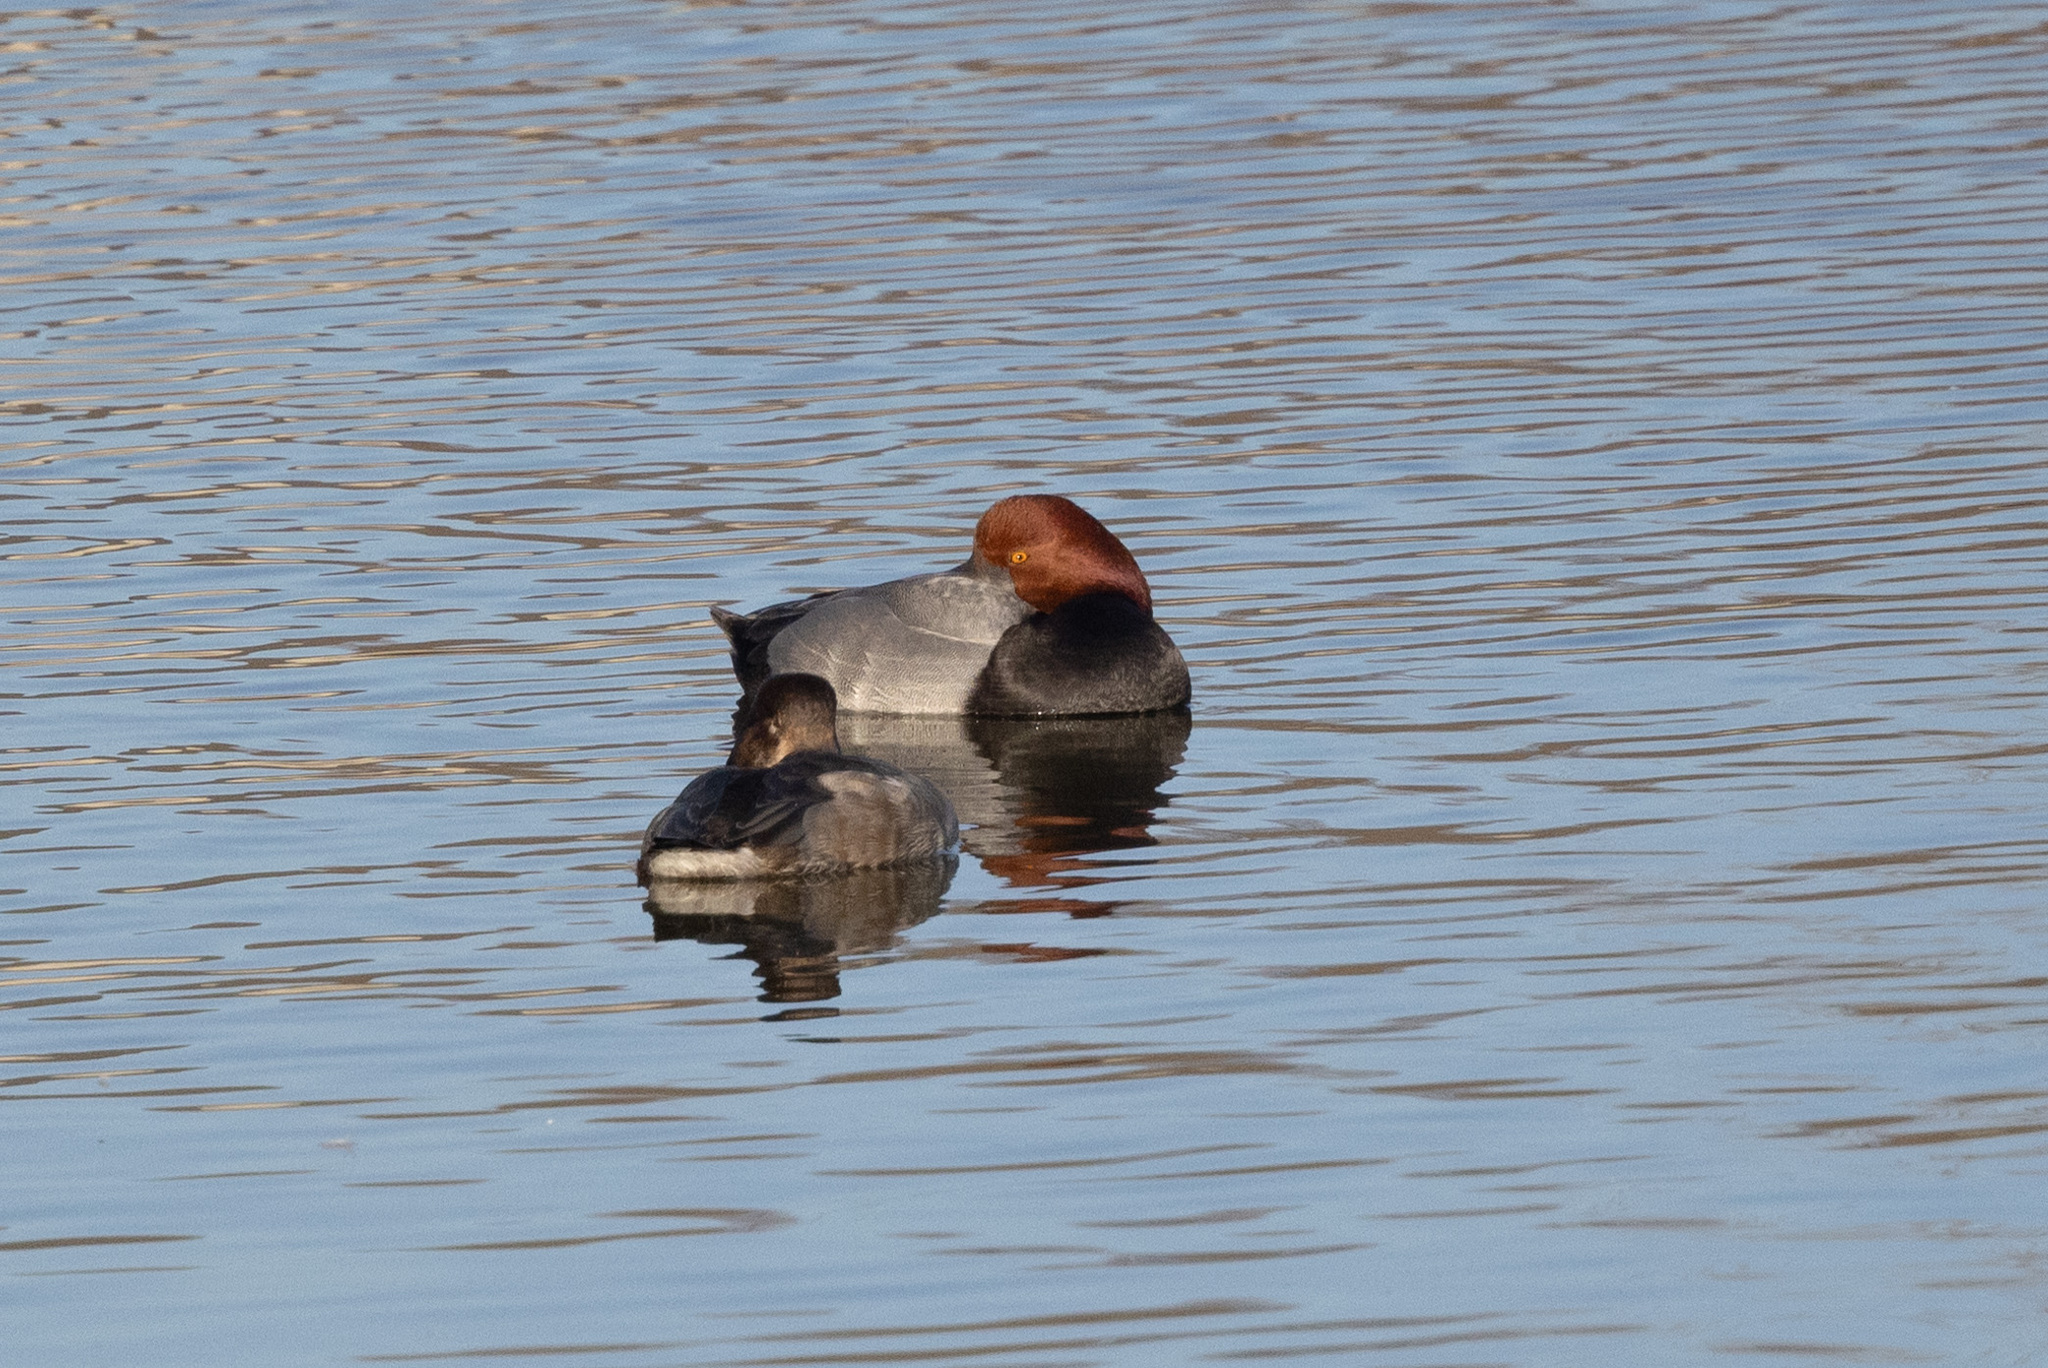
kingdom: Animalia
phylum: Chordata
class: Aves
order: Anseriformes
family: Anatidae
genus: Aythya
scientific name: Aythya americana
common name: Redhead
